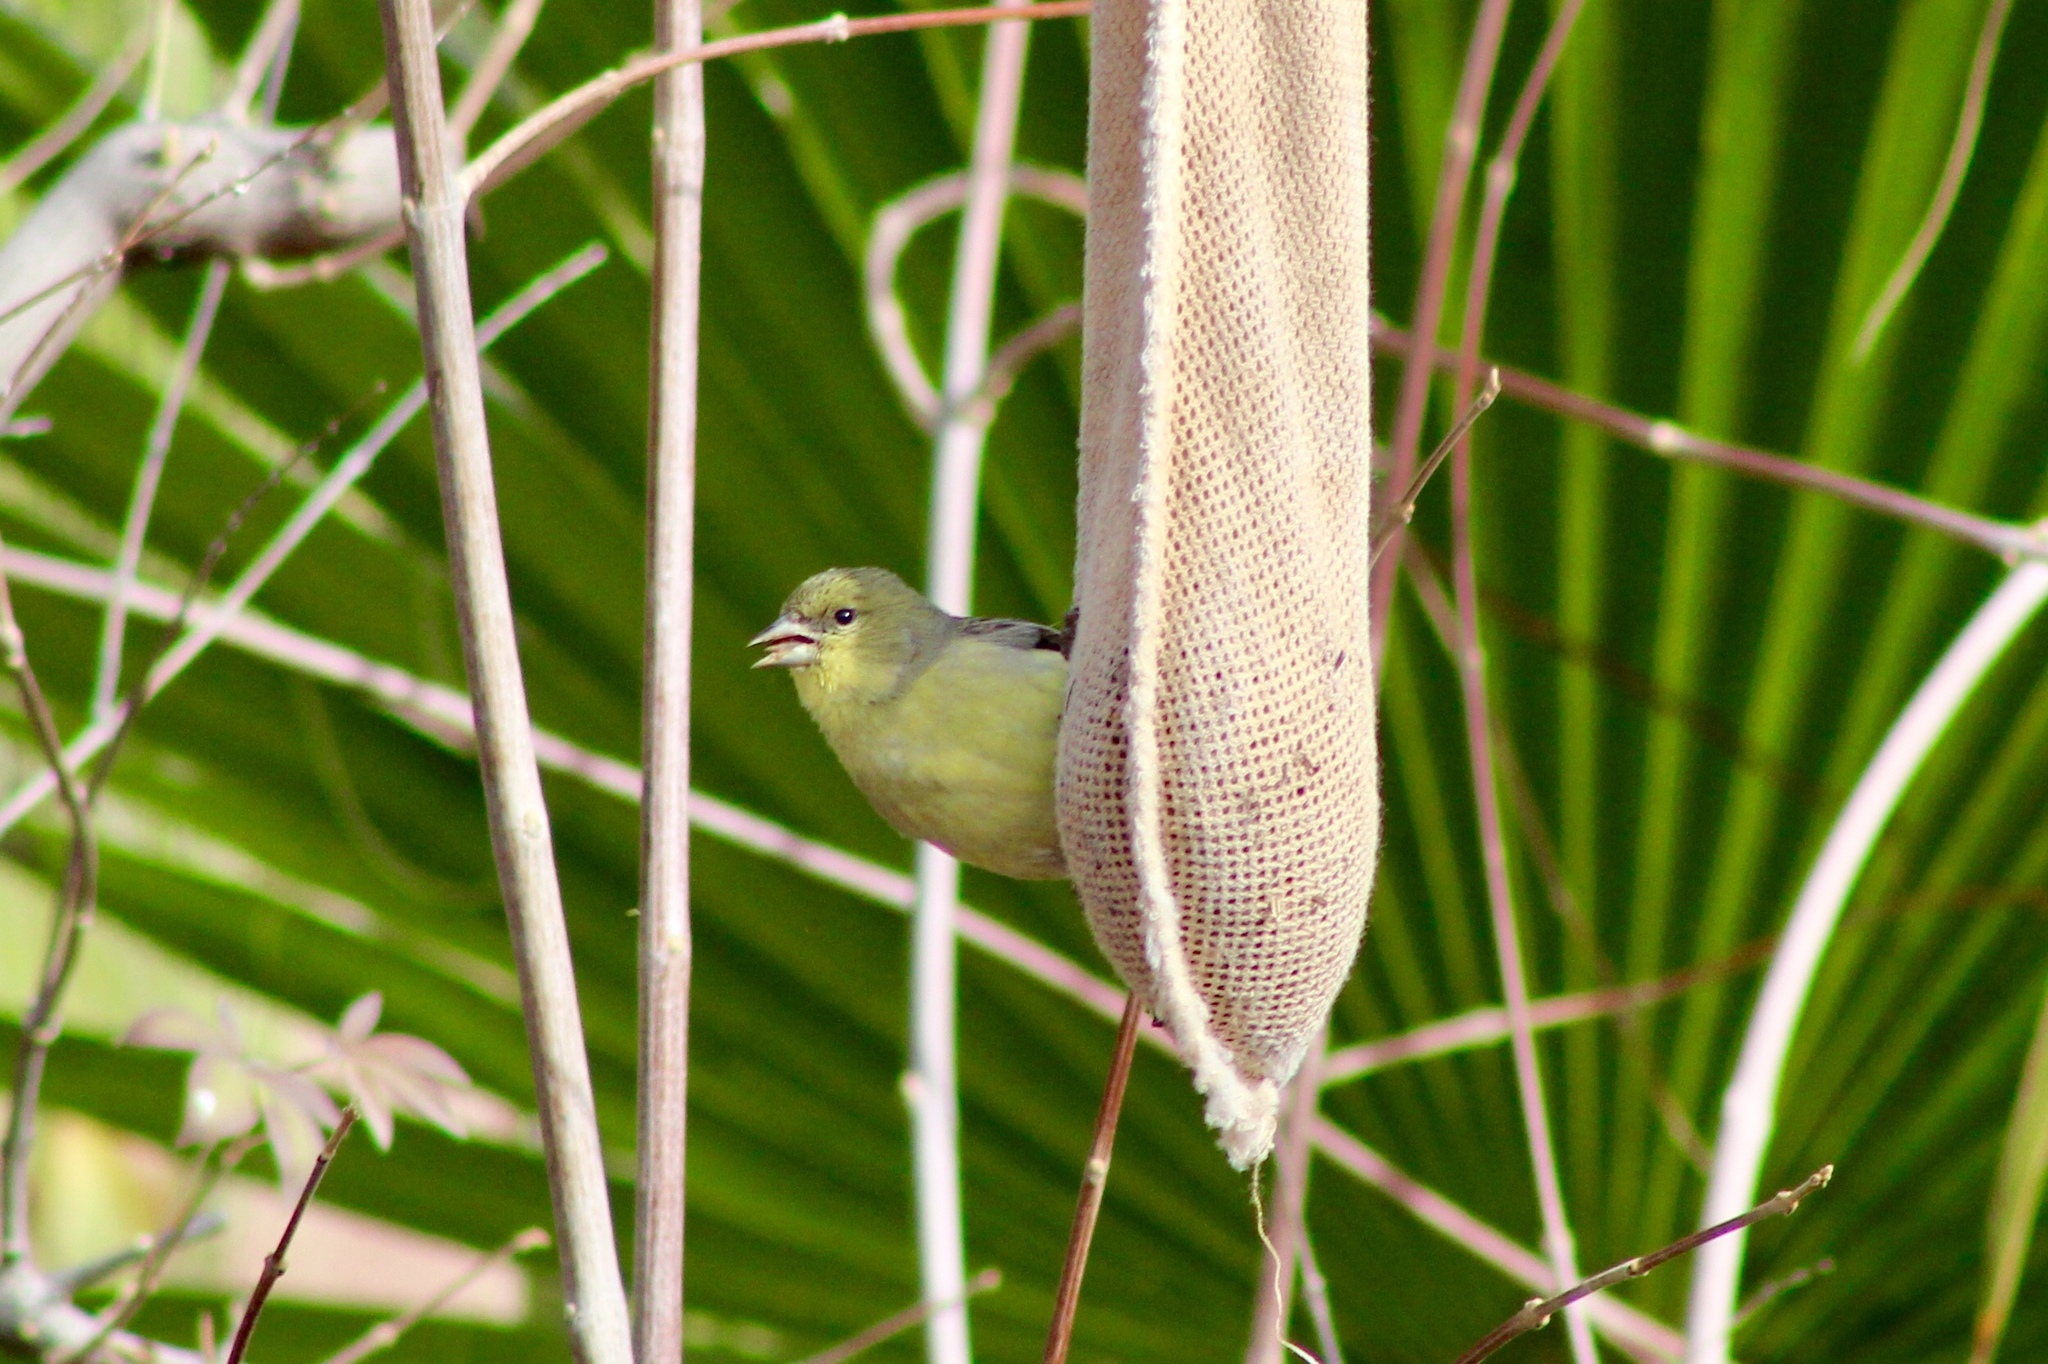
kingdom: Animalia
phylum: Chordata
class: Aves
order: Passeriformes
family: Fringillidae
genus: Spinus
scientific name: Spinus psaltria
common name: Lesser goldfinch
